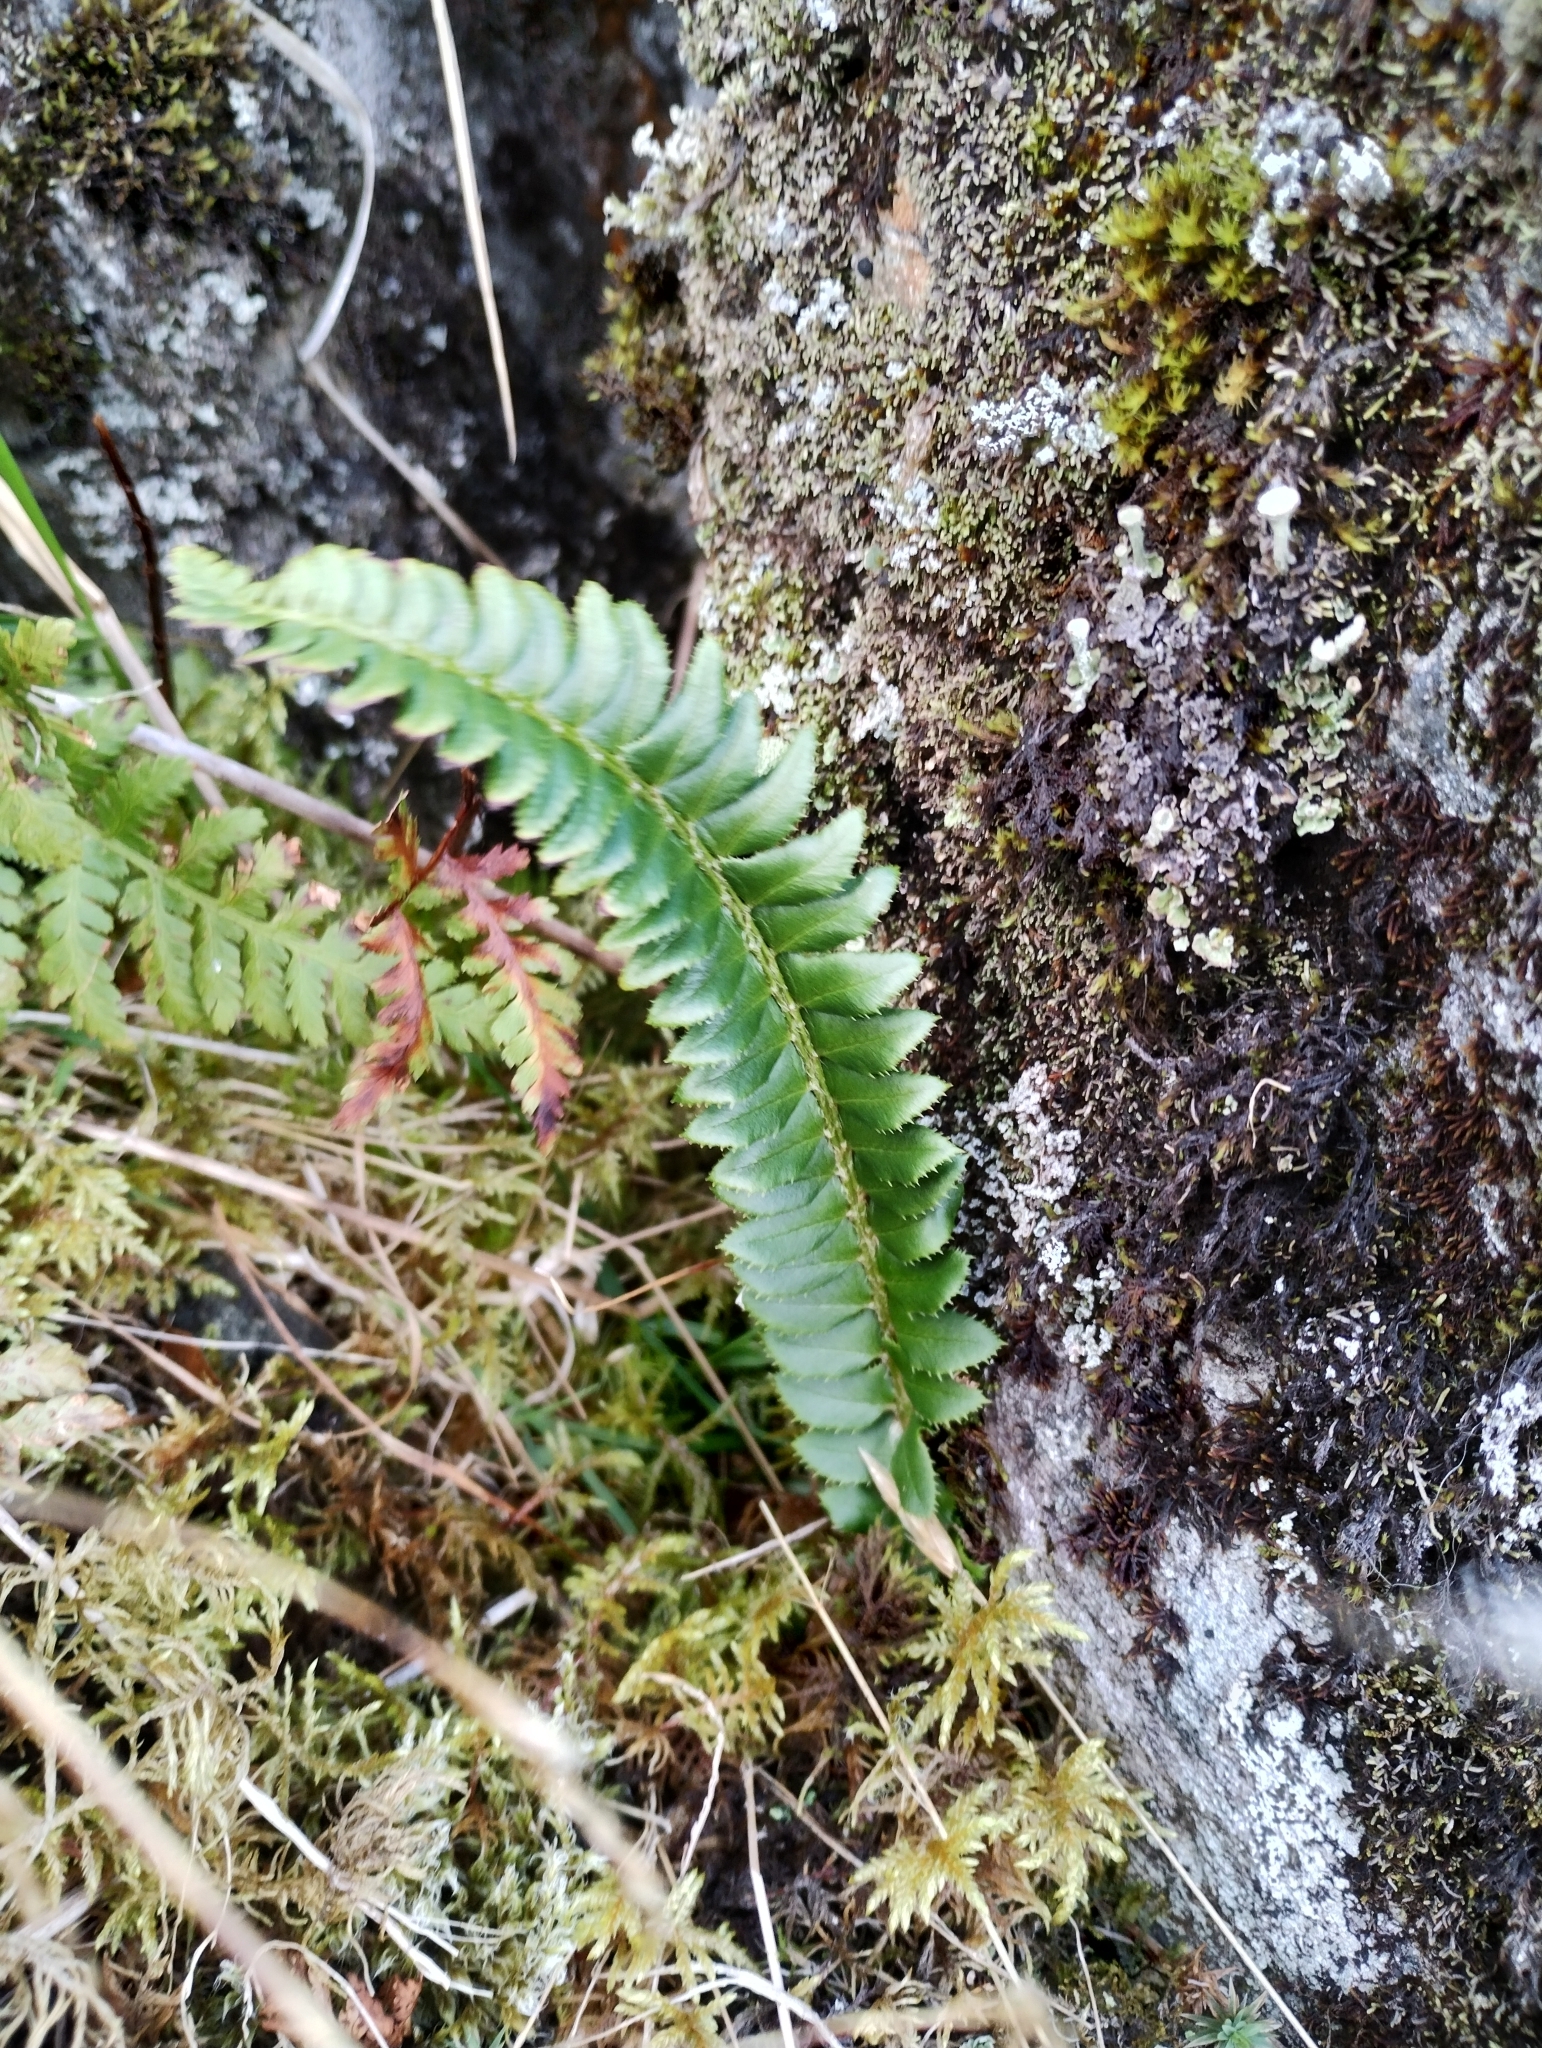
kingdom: Plantae
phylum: Tracheophyta
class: Polypodiopsida
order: Polypodiales
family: Dryopteridaceae
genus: Polystichum
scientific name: Polystichum lonchitis
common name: Holly fern
